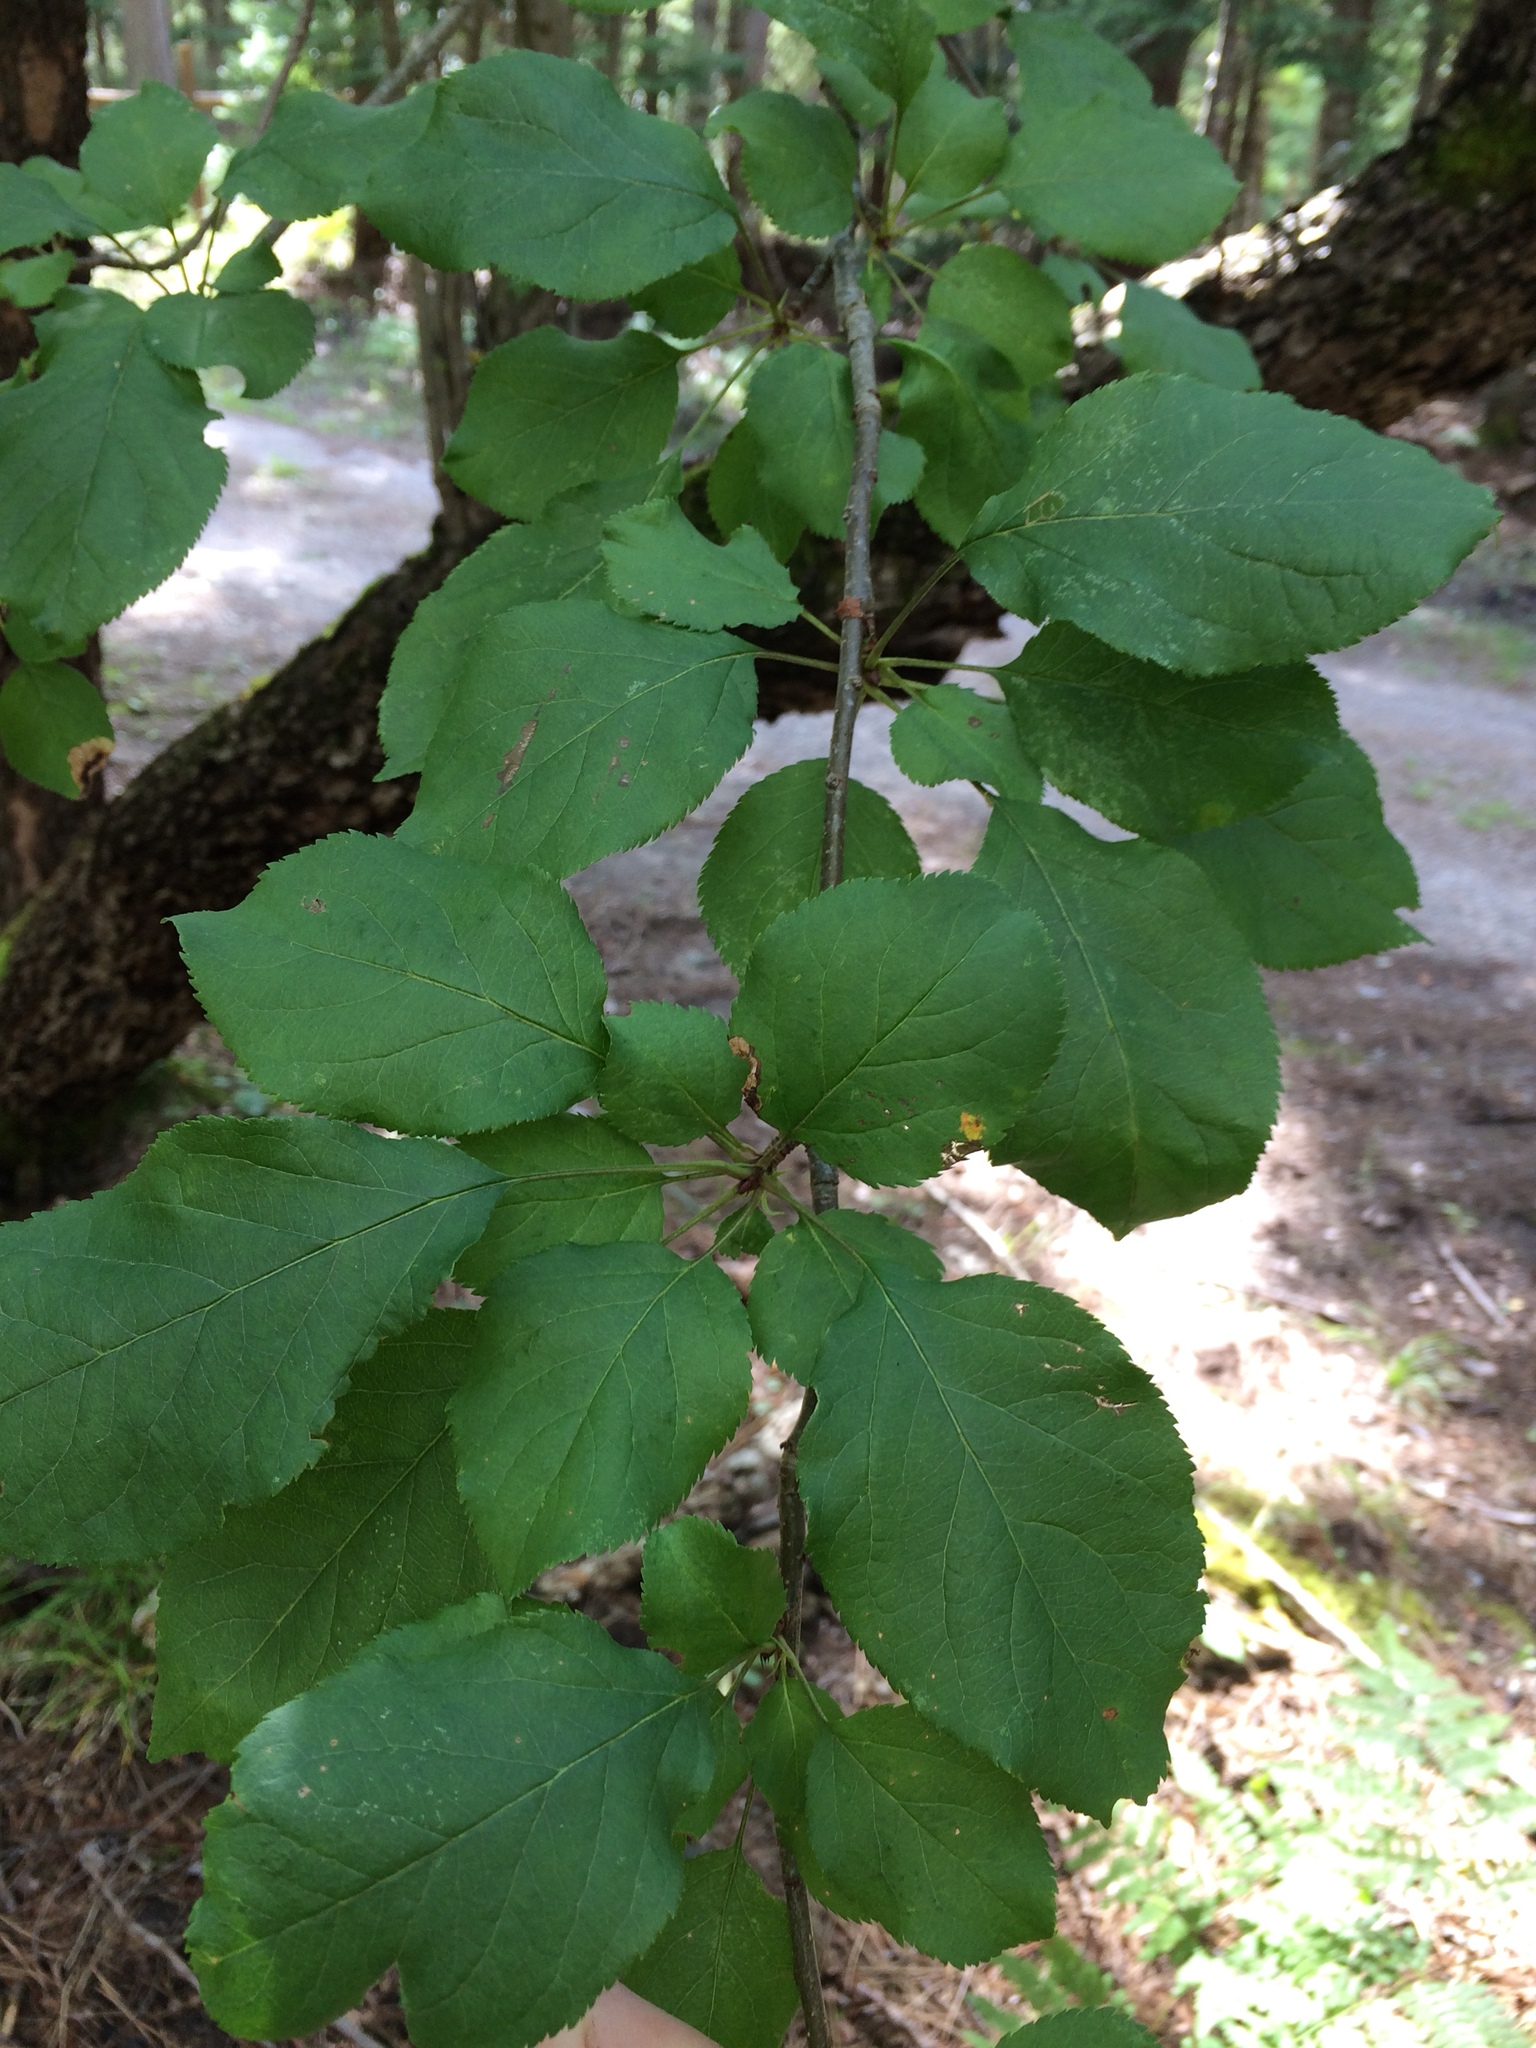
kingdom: Plantae
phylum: Tracheophyta
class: Magnoliopsida
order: Rosales
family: Rosaceae
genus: Malus
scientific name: Malus domestica
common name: Apple
